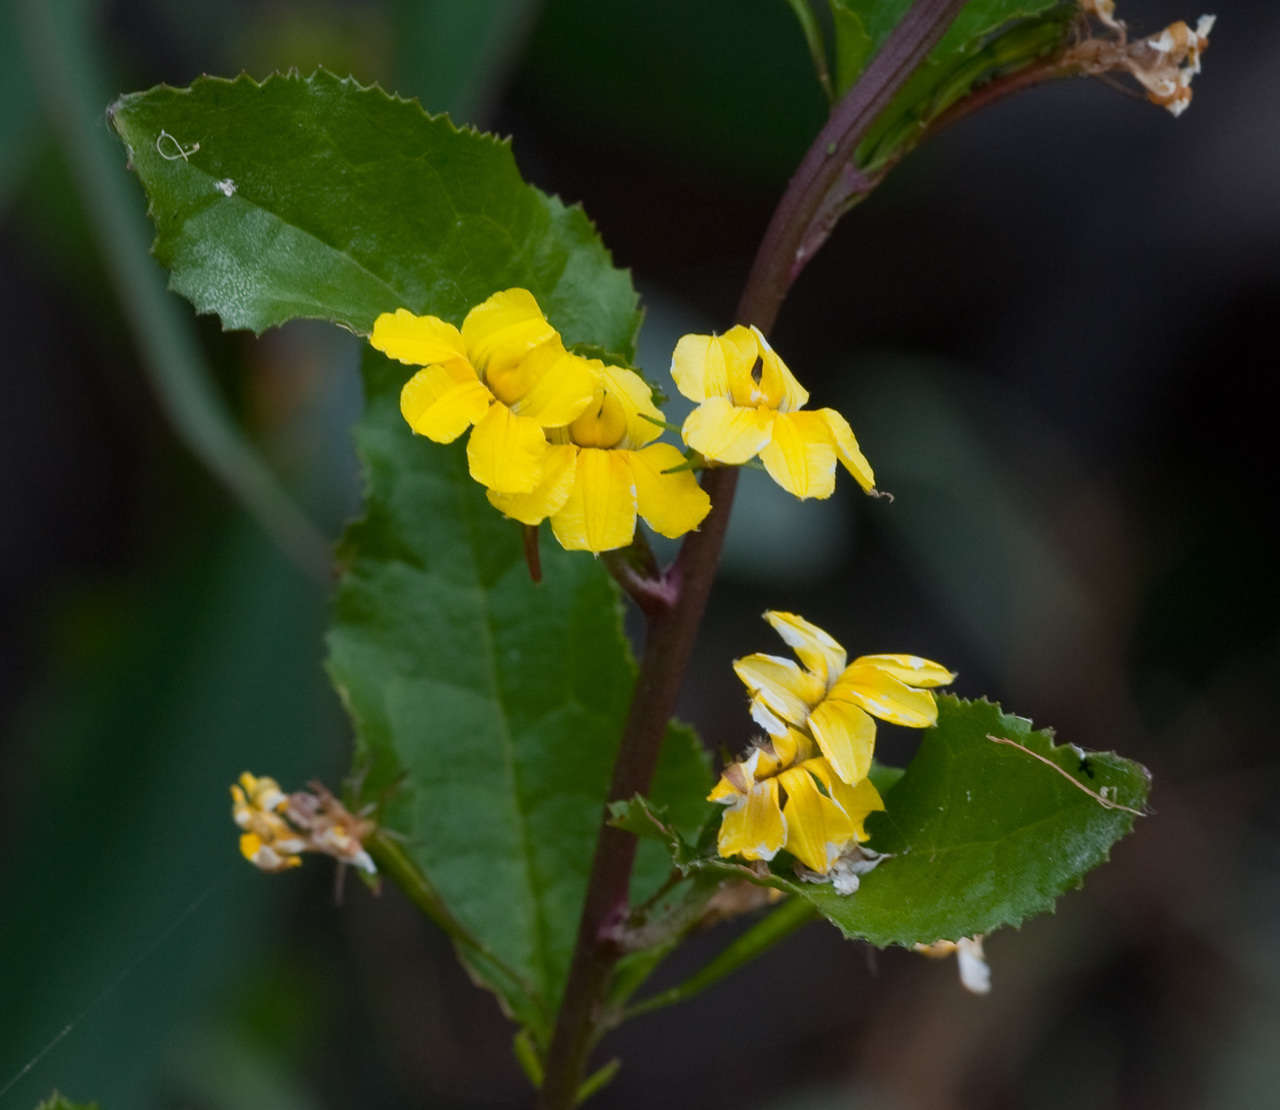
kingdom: Plantae
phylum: Tracheophyta
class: Magnoliopsida
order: Asterales
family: Goodeniaceae
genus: Goodenia
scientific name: Goodenia ovata
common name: Hop goodenia
